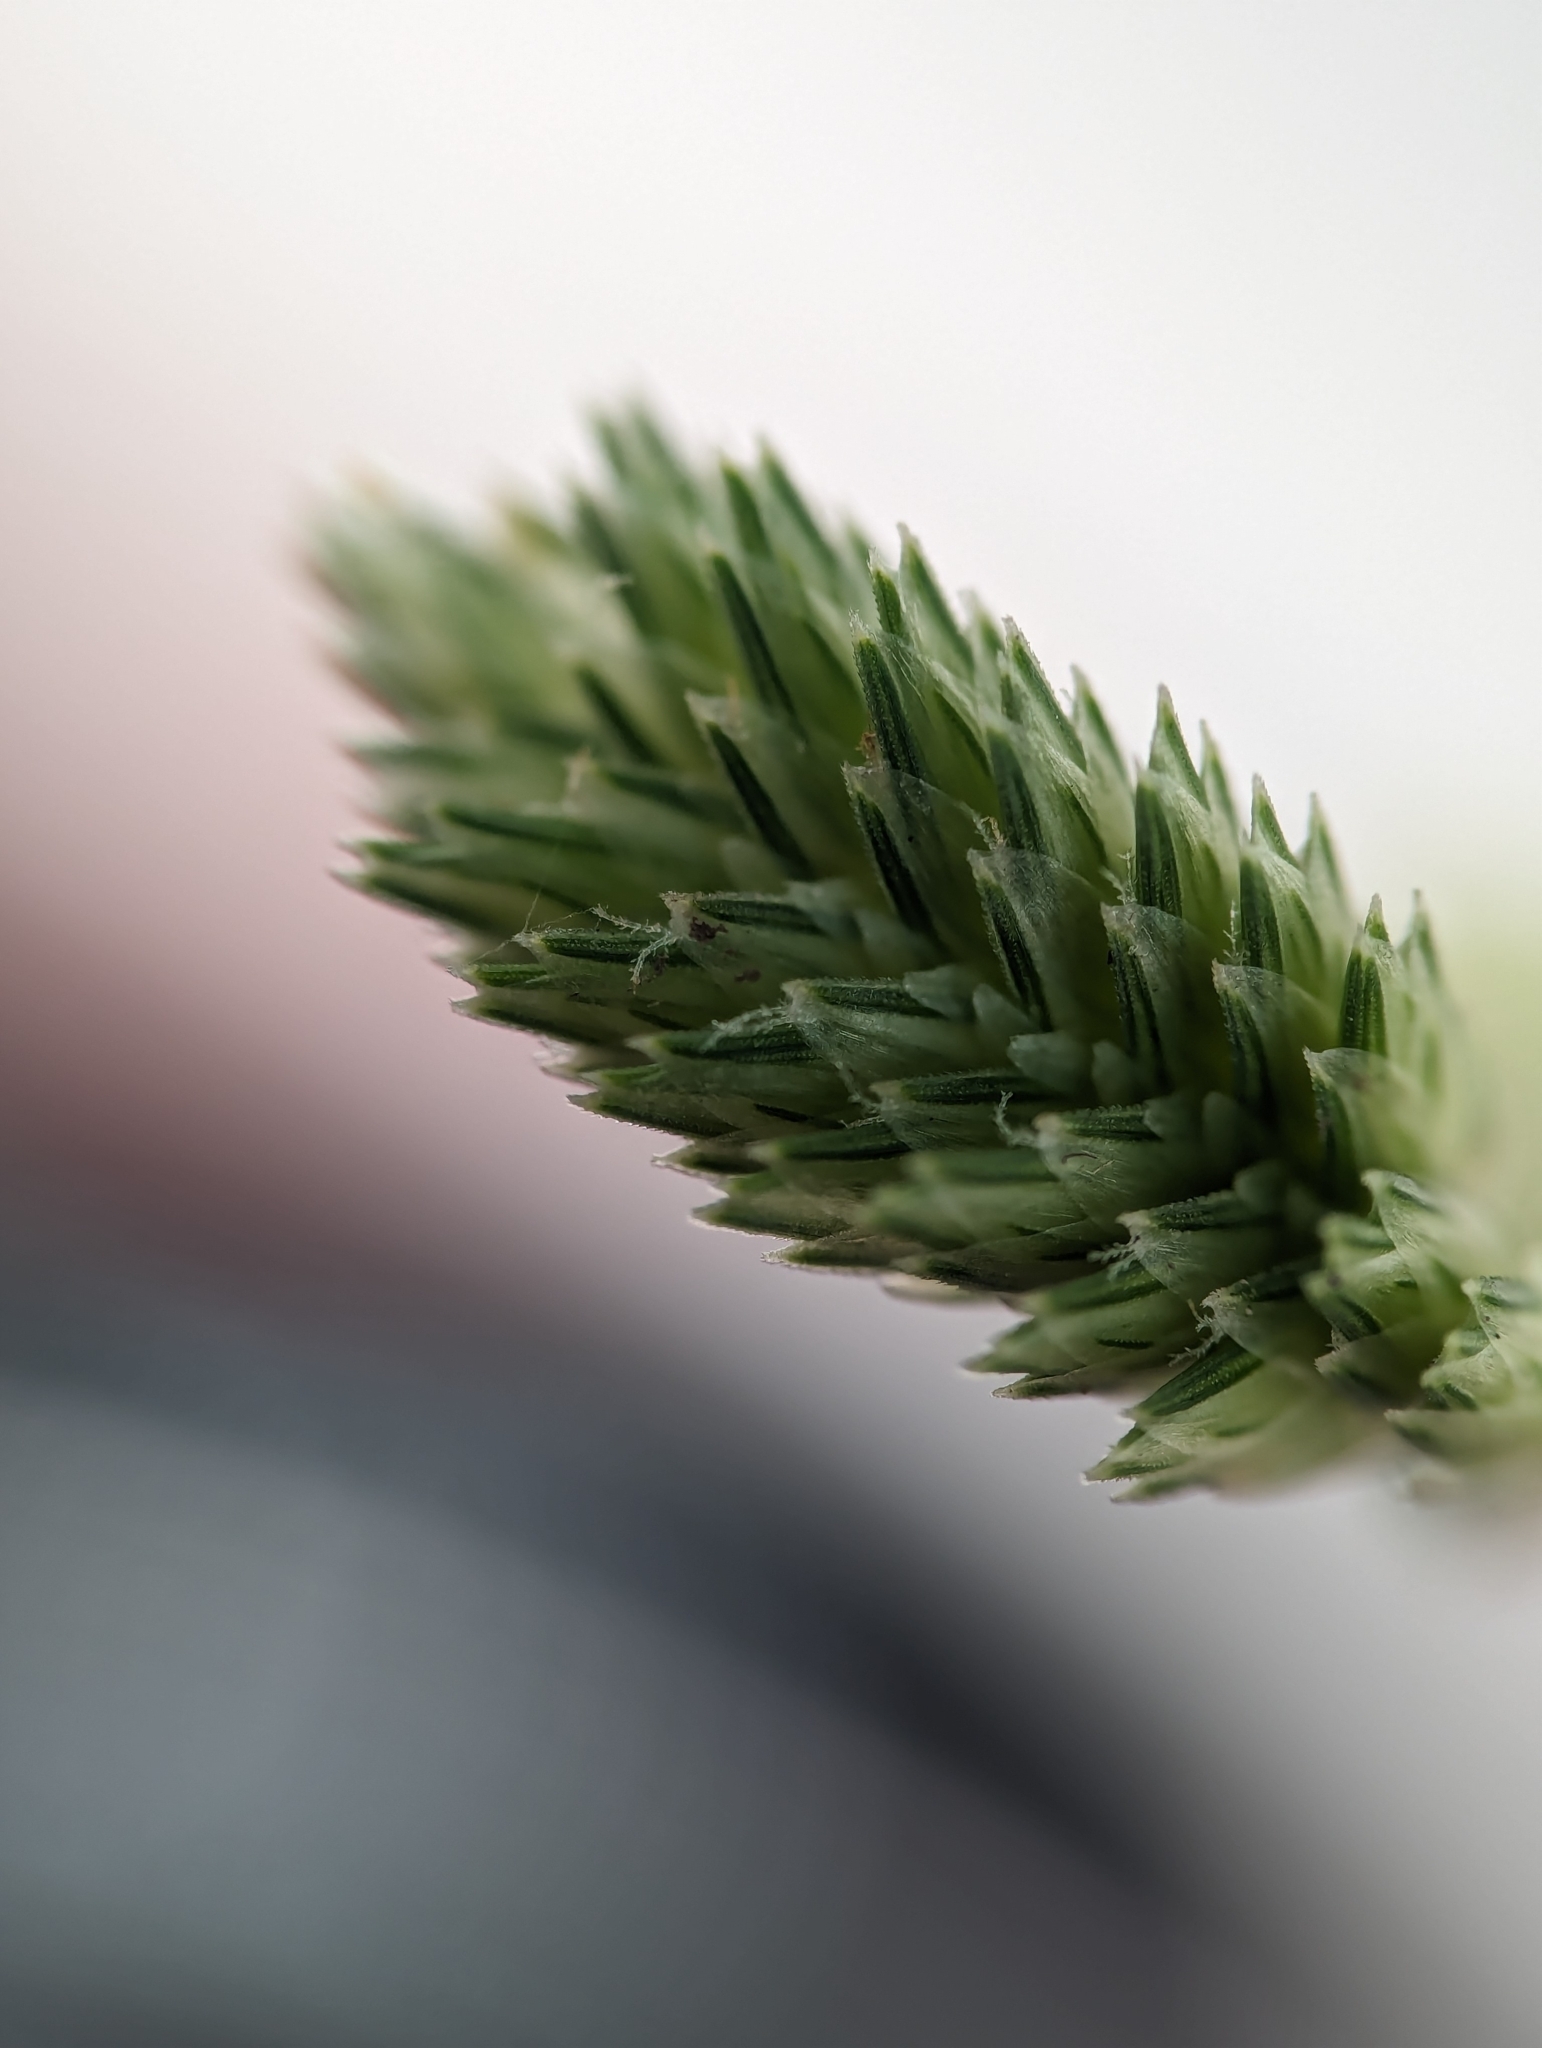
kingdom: Plantae
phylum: Tracheophyta
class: Liliopsida
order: Poales
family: Poaceae
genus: Eleusine
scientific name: Eleusine multiflora
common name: Fat-spiked yard-grass
